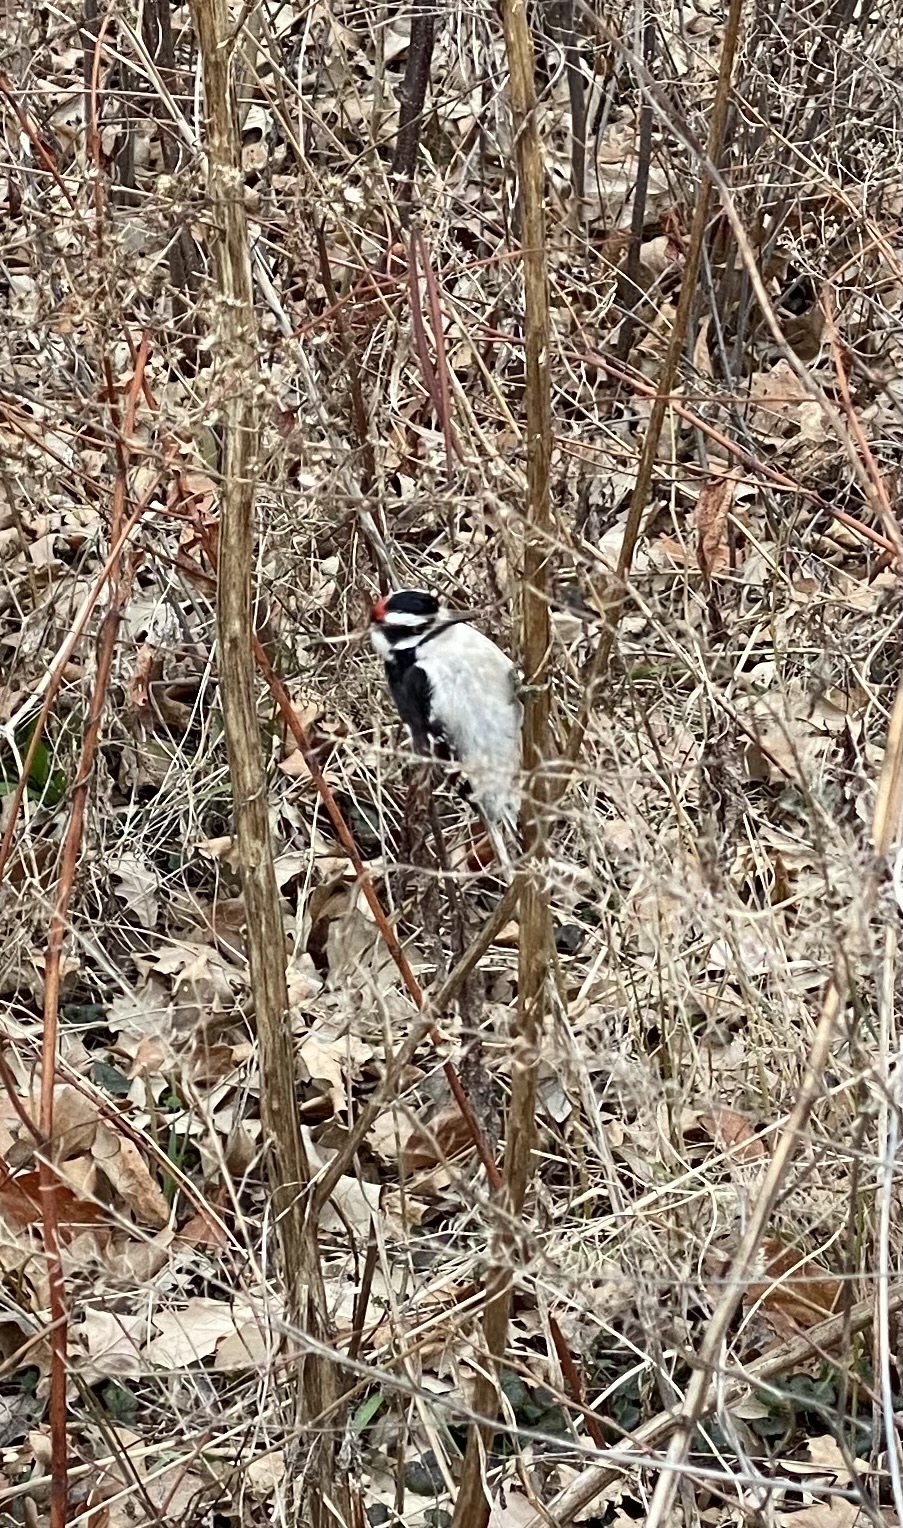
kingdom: Animalia
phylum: Chordata
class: Aves
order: Piciformes
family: Picidae
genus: Dryobates
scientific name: Dryobates pubescens
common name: Downy woodpecker
